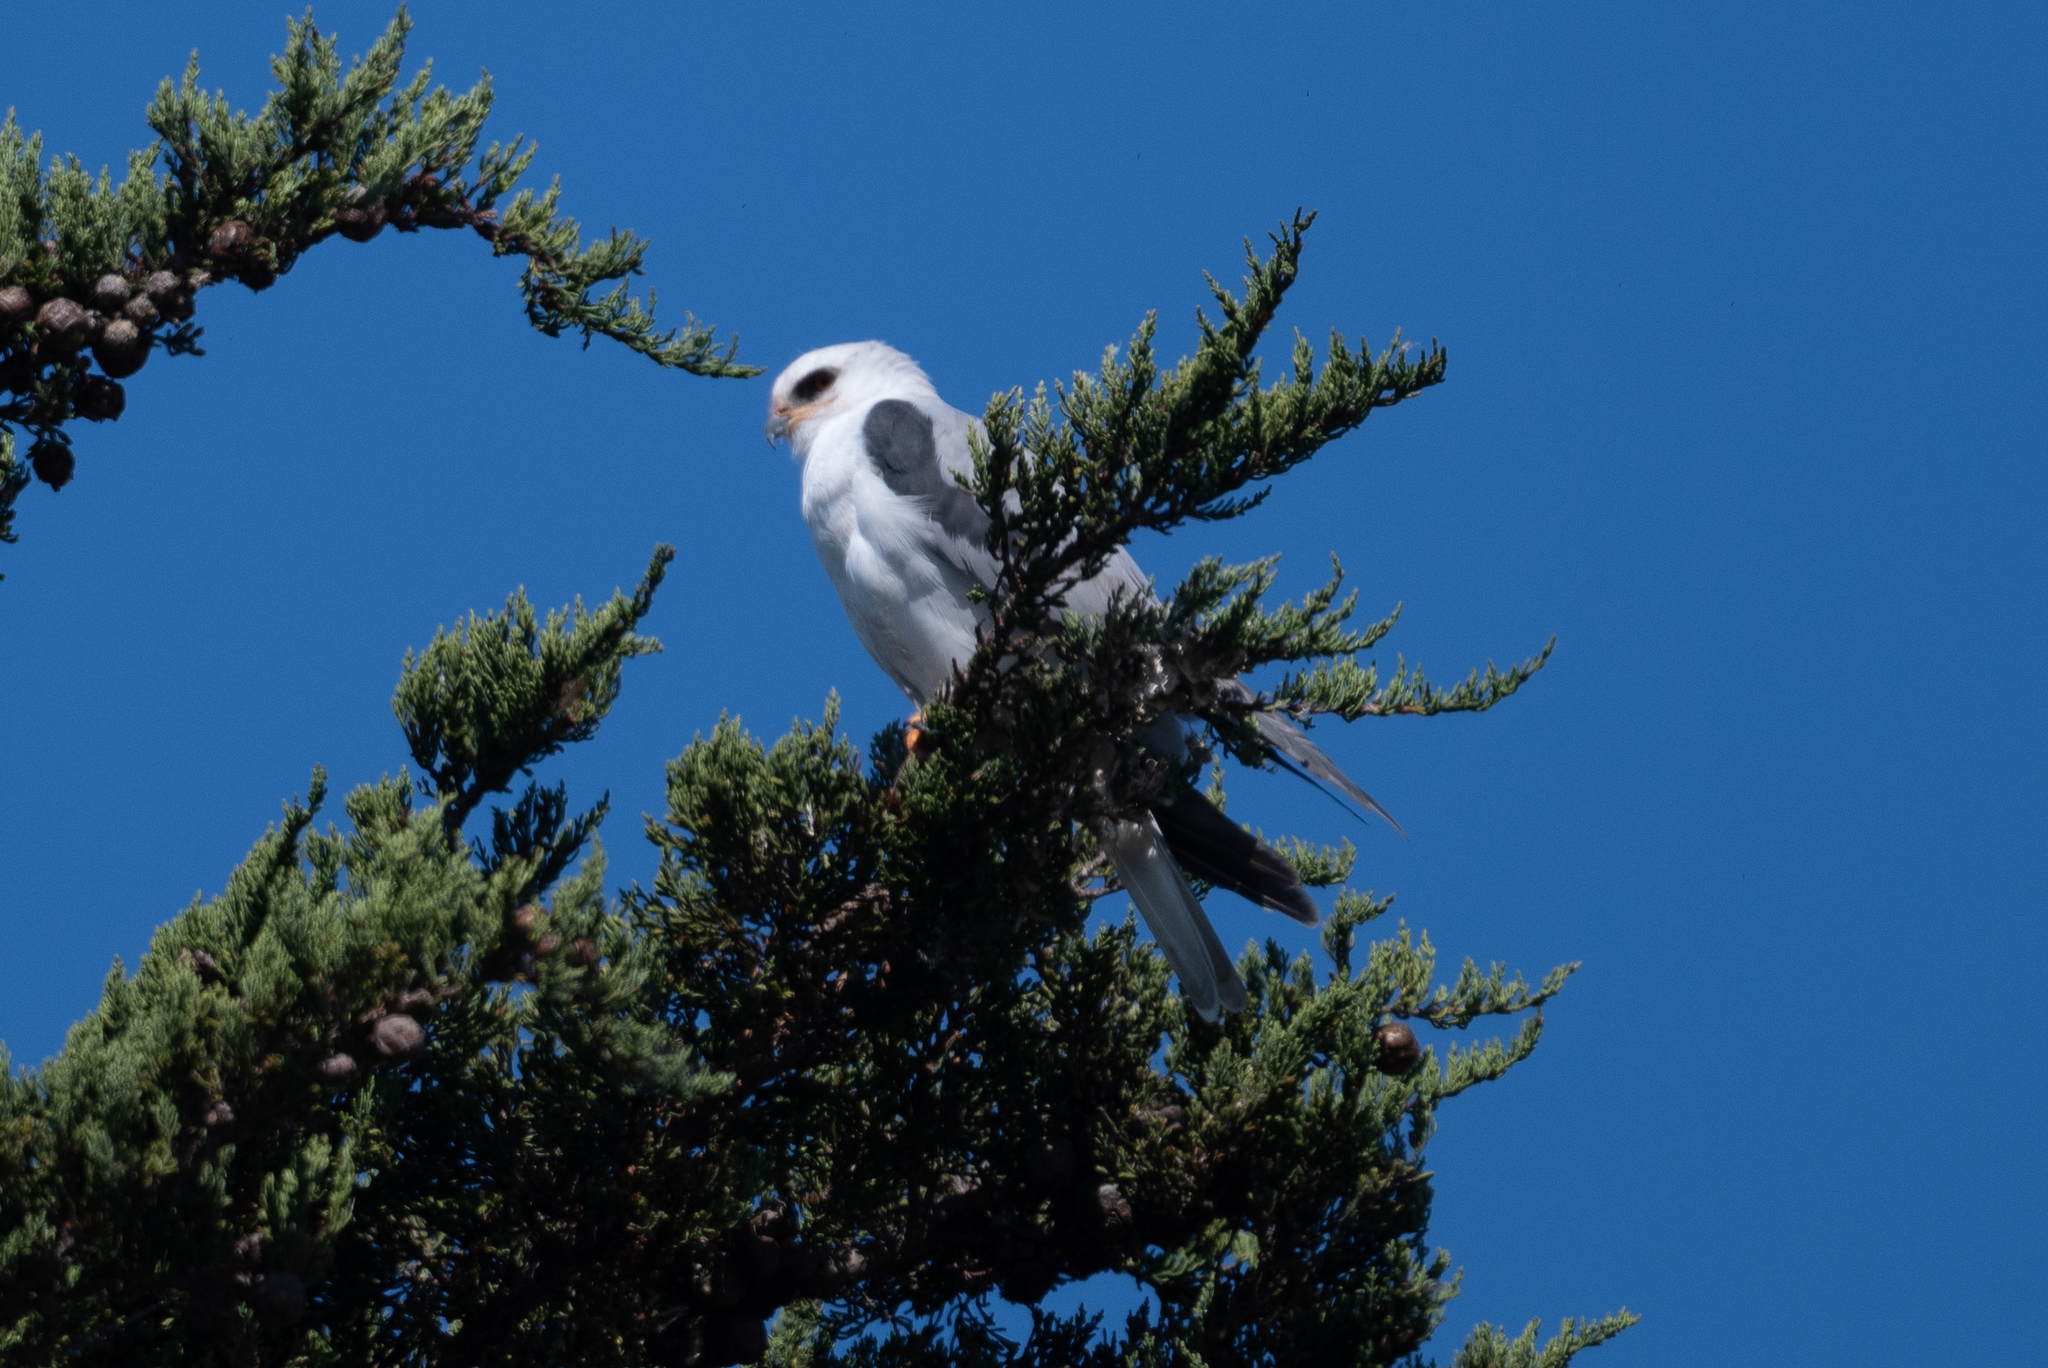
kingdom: Animalia
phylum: Chordata
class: Aves
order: Accipitriformes
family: Accipitridae
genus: Elanus
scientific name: Elanus leucurus
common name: White-tailed kite
